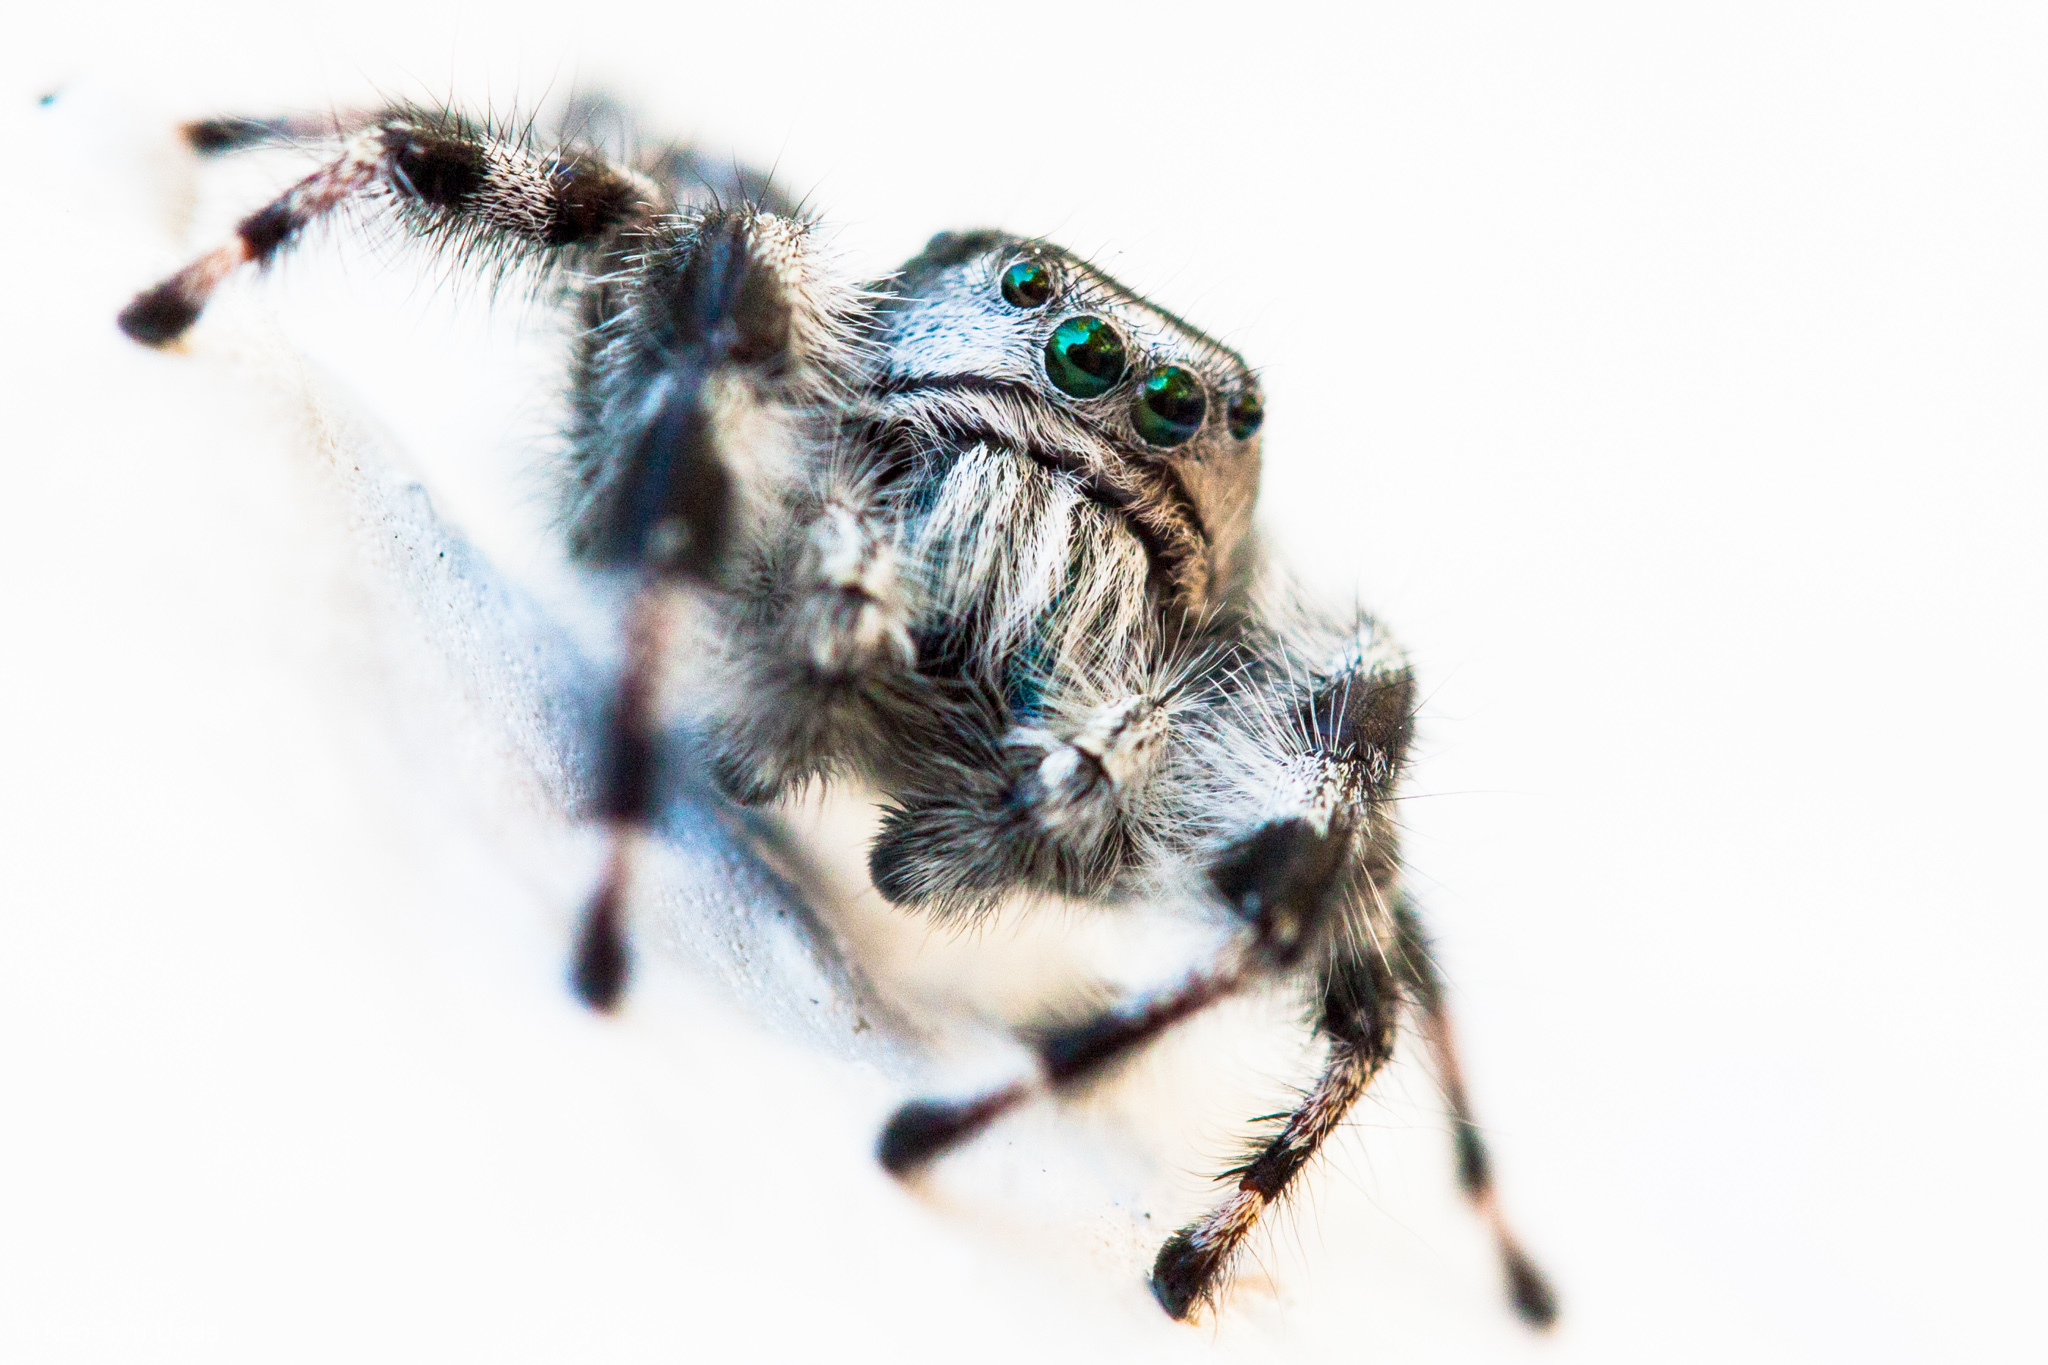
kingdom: Animalia
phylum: Arthropoda
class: Arachnida
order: Araneae
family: Salticidae
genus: Phidippus
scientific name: Phidippus kastoni
